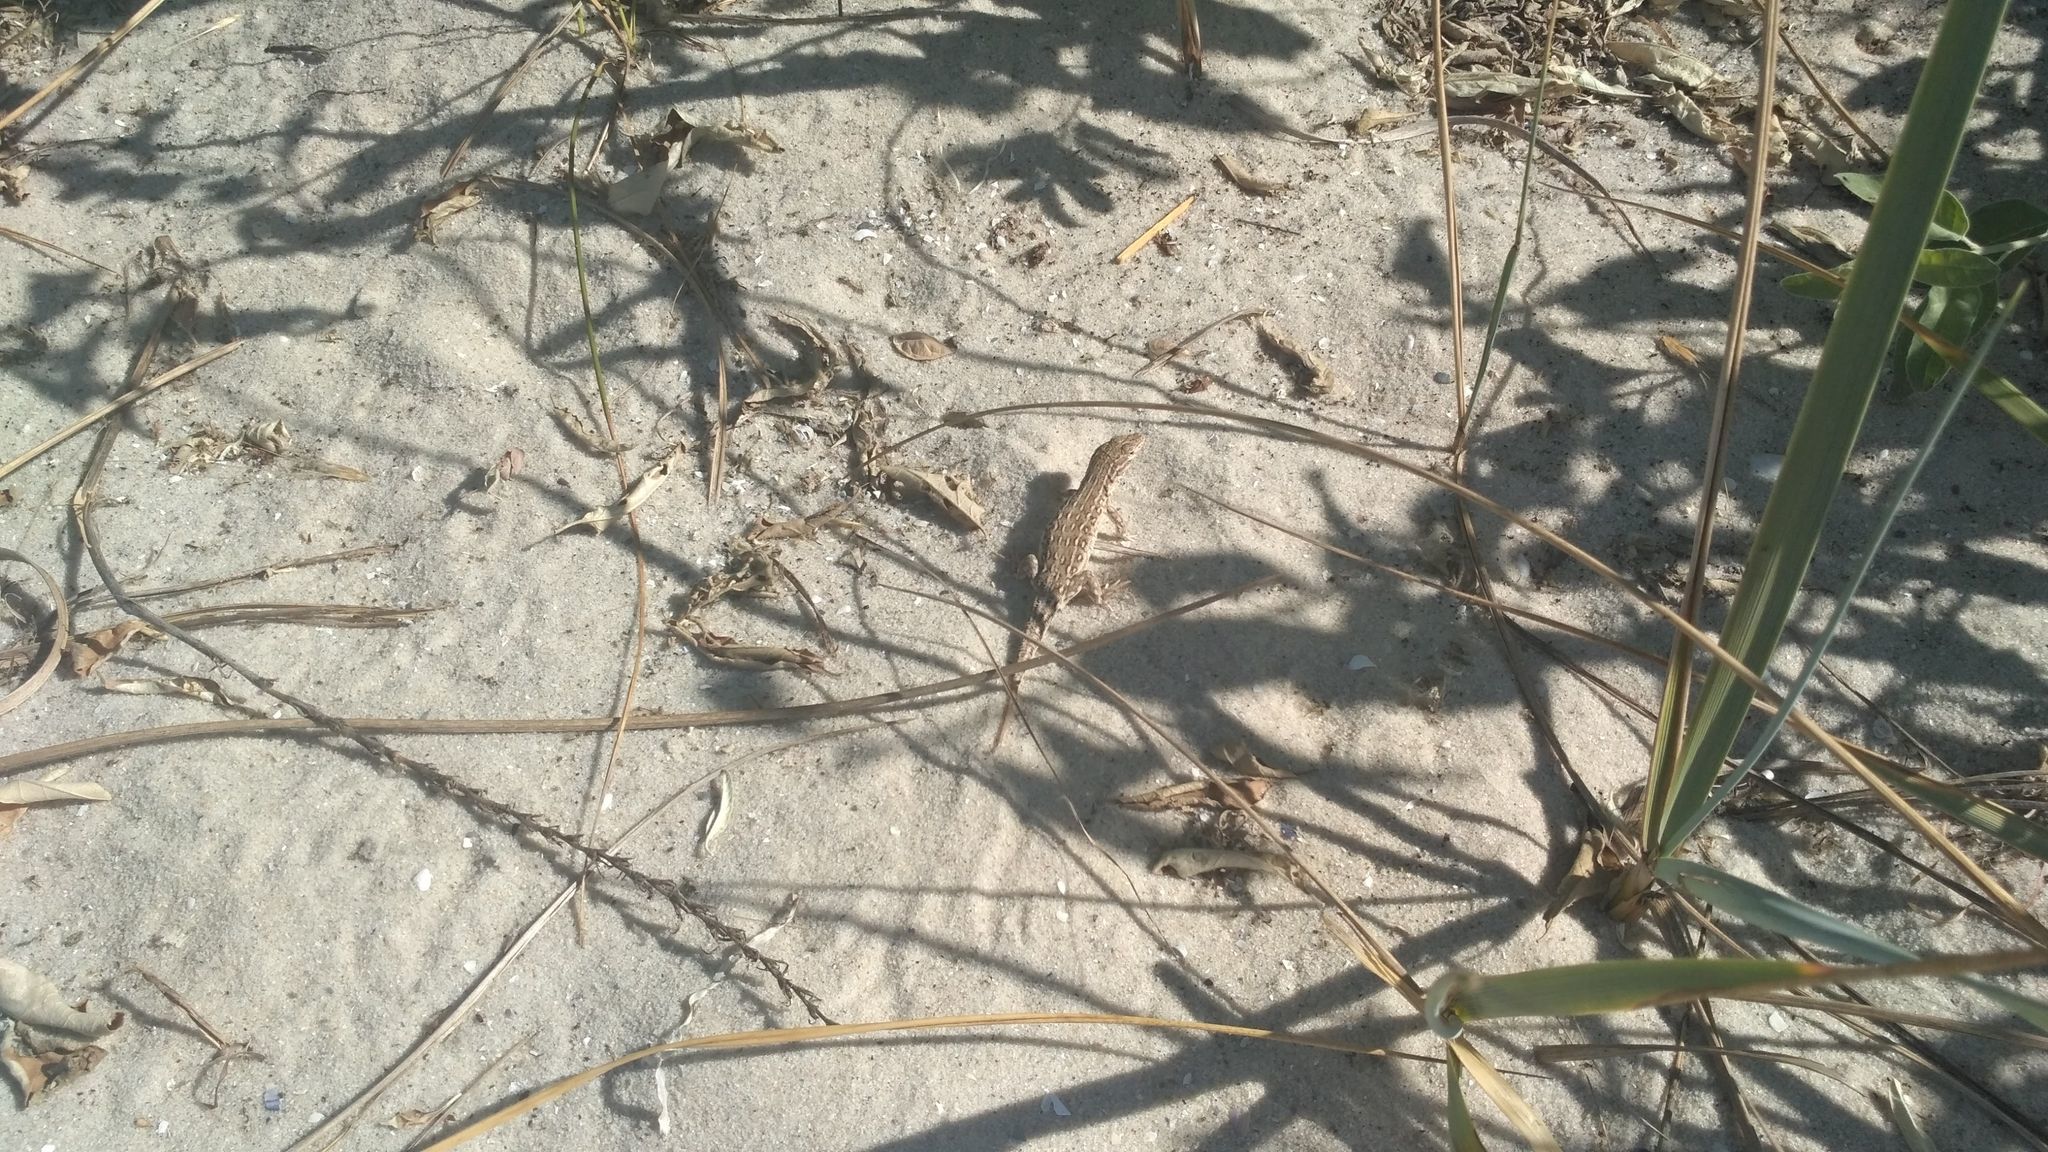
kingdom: Animalia
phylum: Chordata
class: Squamata
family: Lacertidae
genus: Eremias
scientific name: Eremias arguta
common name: Racerunner
